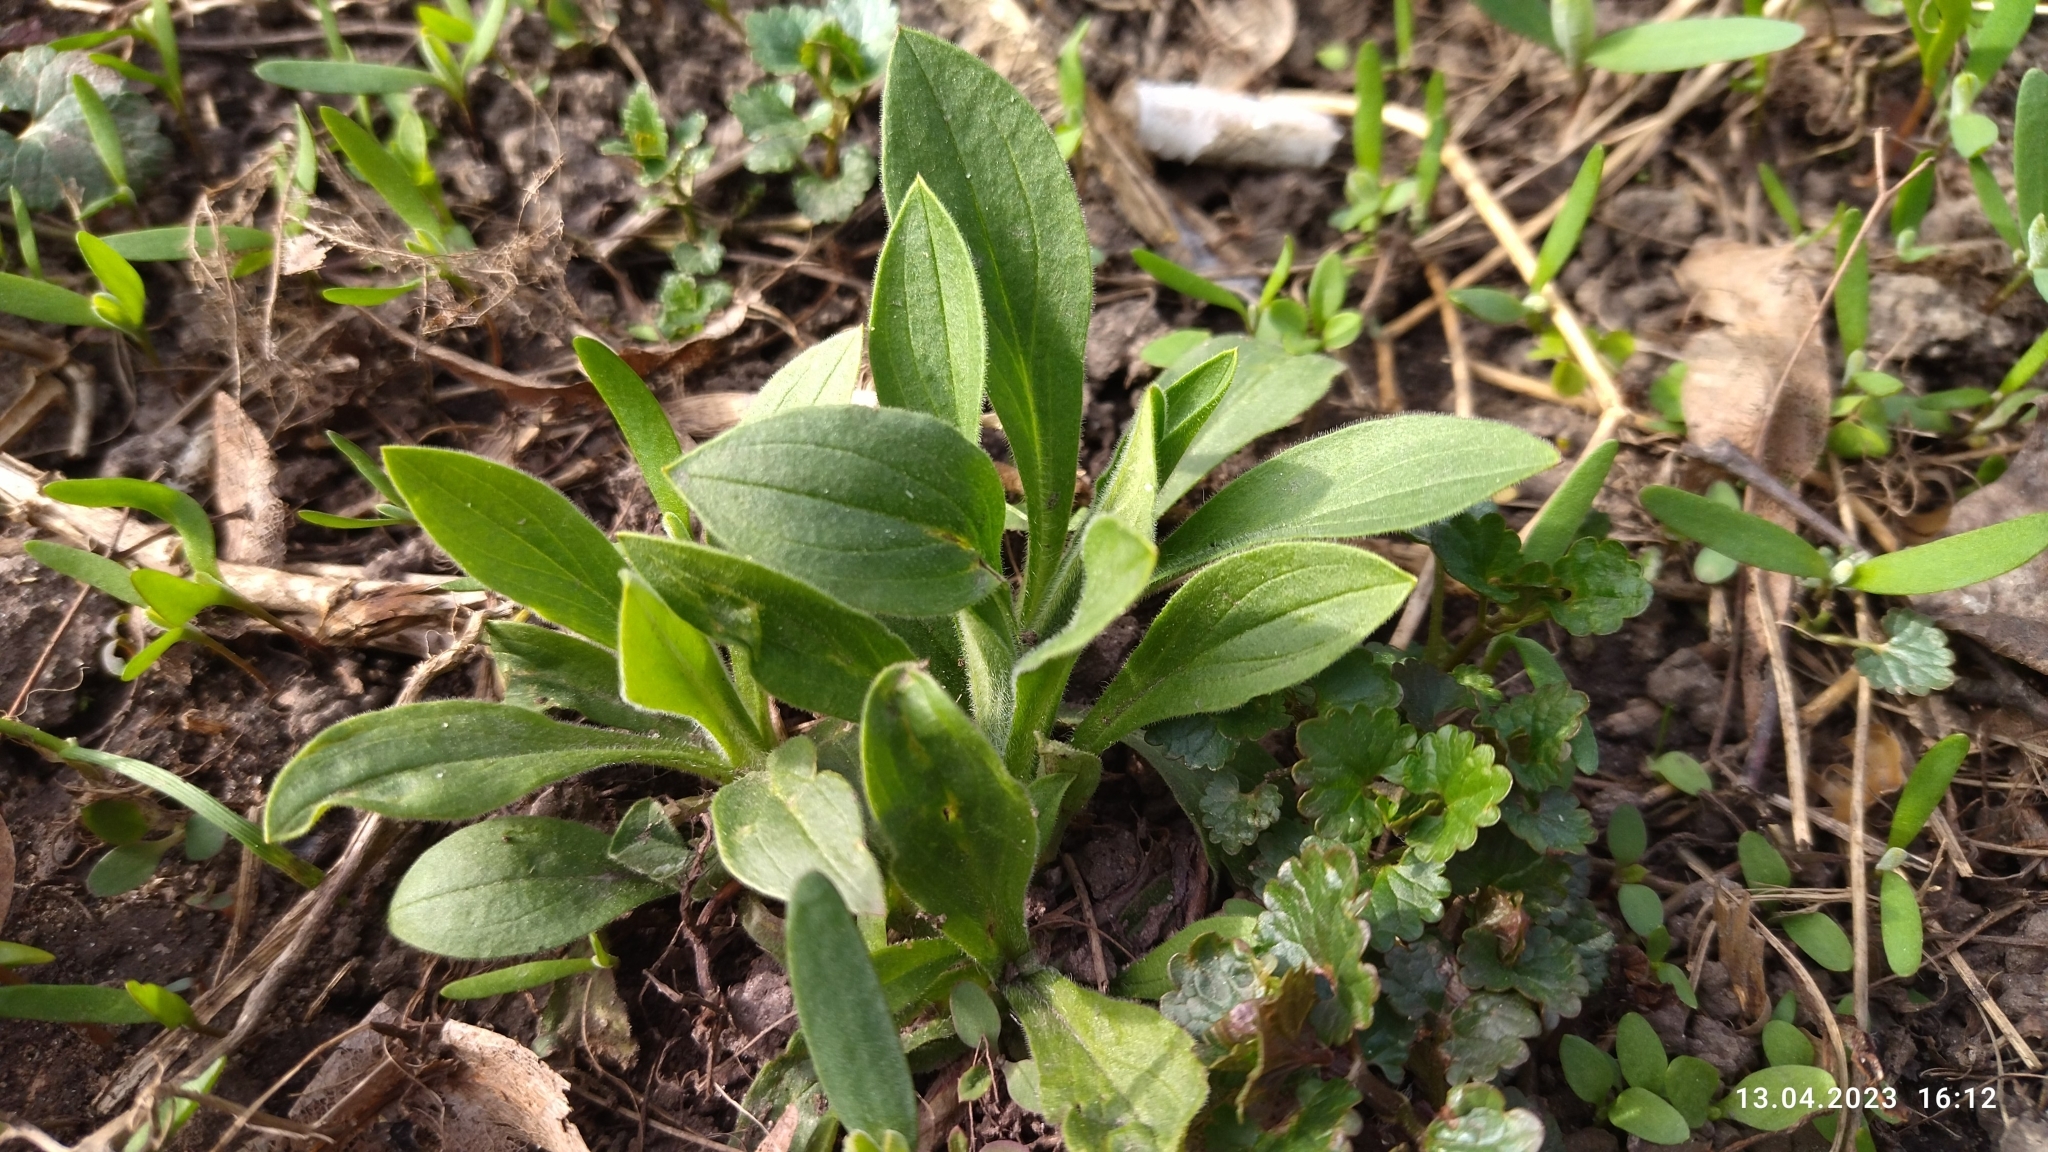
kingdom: Plantae
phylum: Tracheophyta
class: Magnoliopsida
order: Caryophyllales
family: Caryophyllaceae
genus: Silene
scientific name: Silene latifolia
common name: White campion
